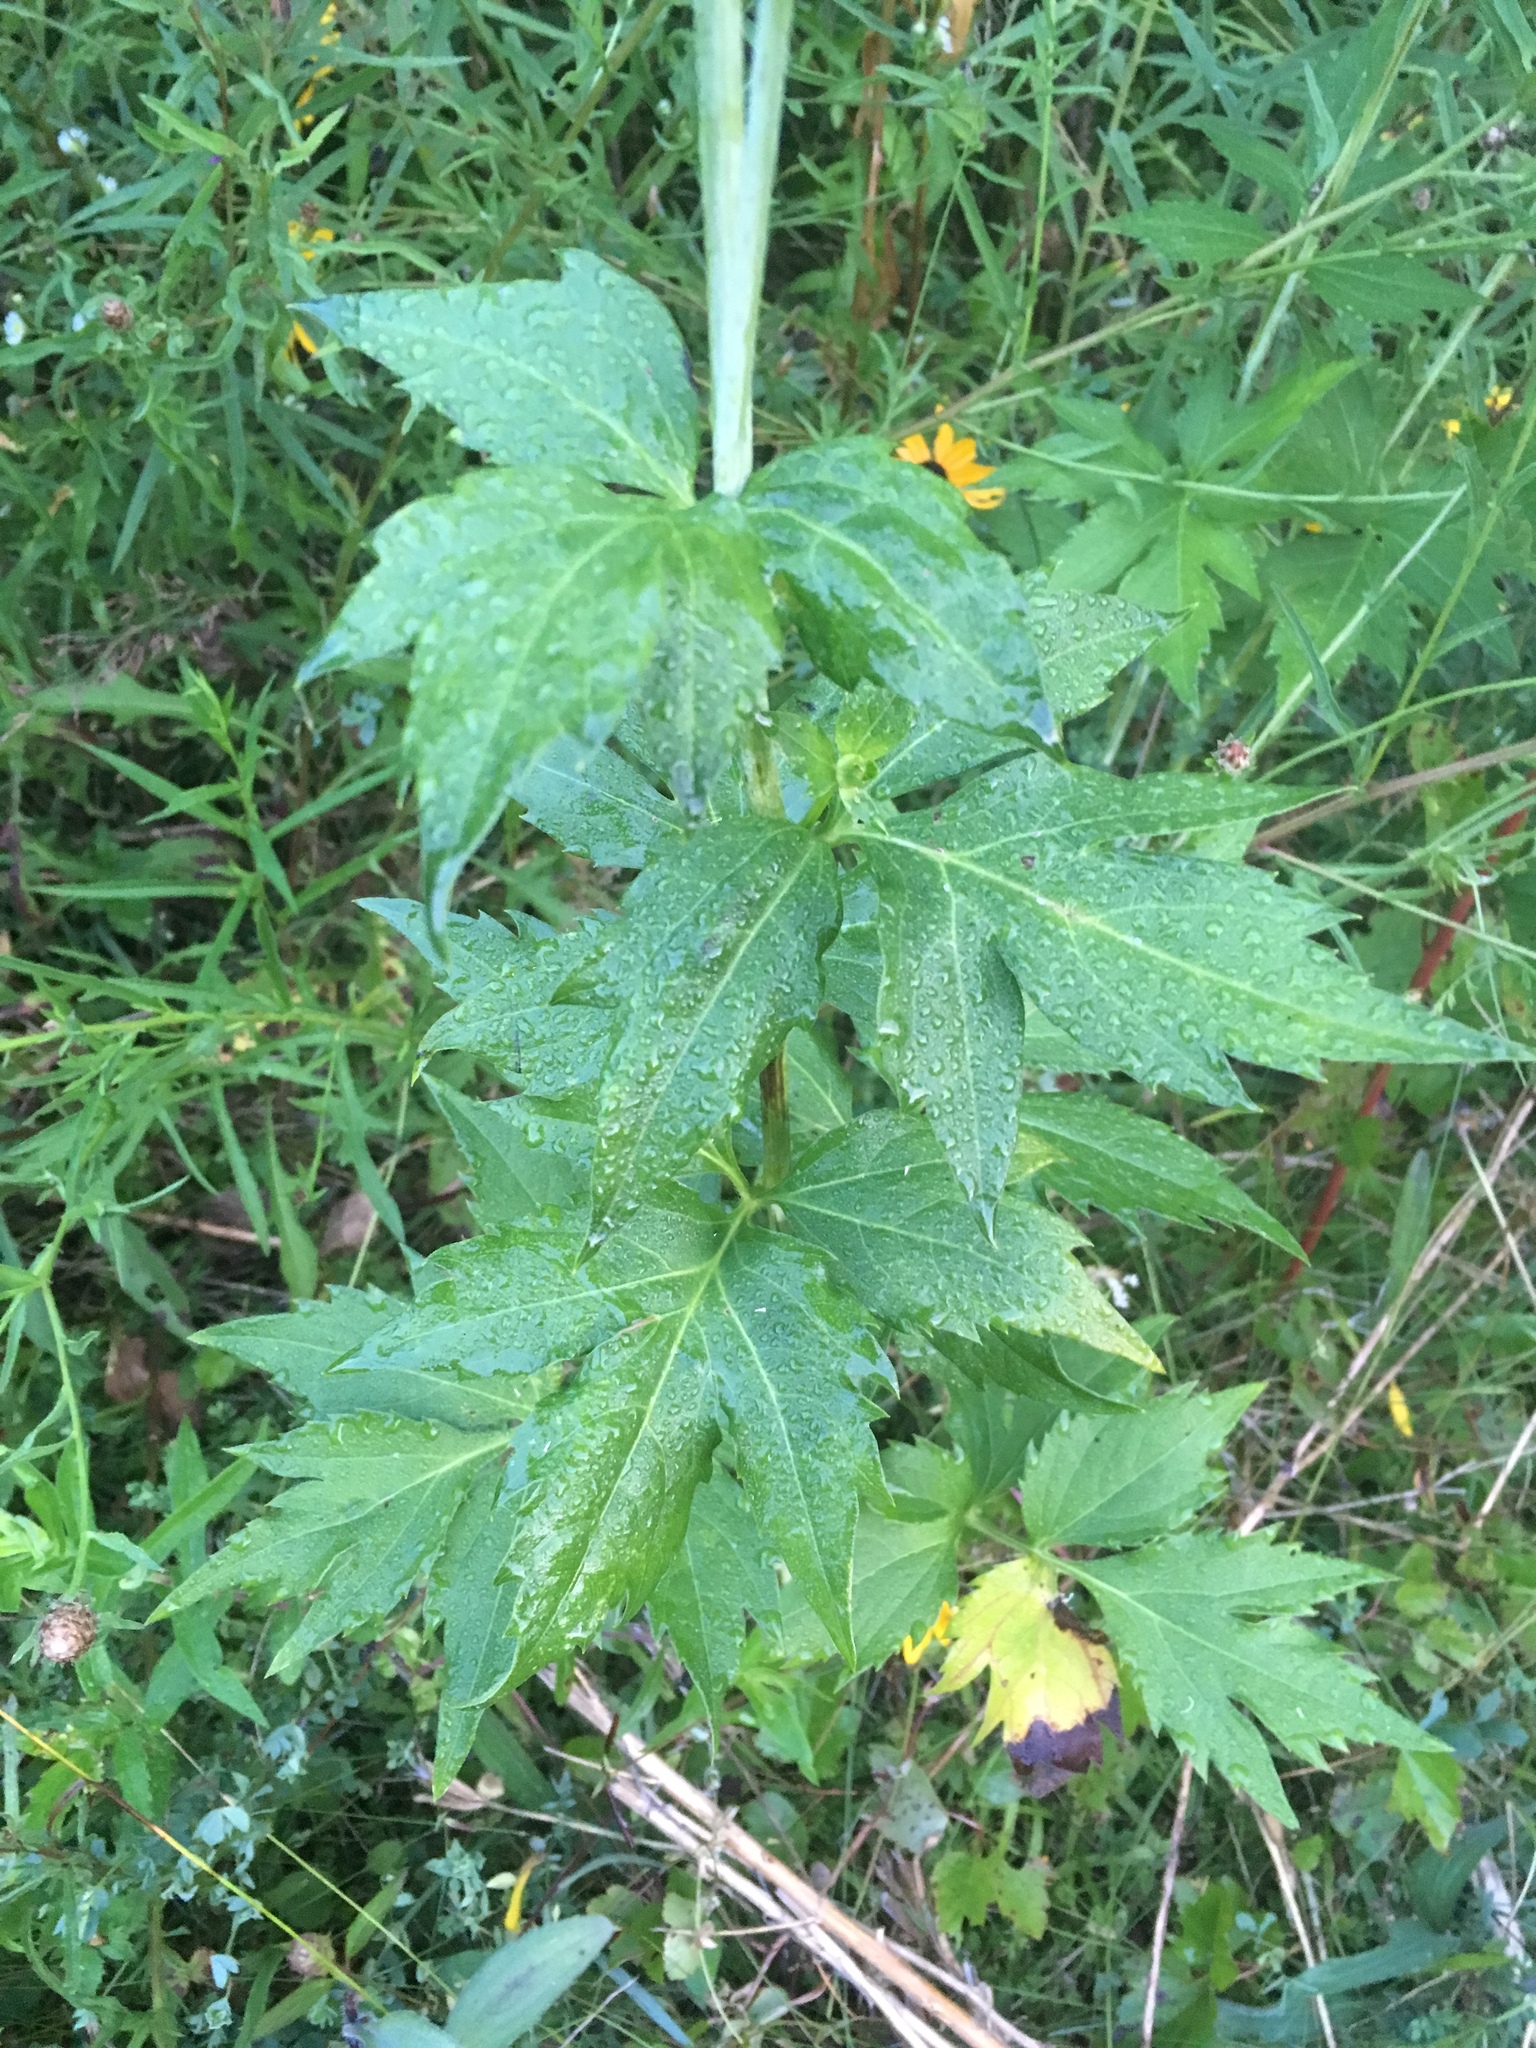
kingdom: Plantae
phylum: Tracheophyta
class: Magnoliopsida
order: Asterales
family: Asteraceae
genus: Rudbeckia
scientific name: Rudbeckia laciniata
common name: Coneflower
